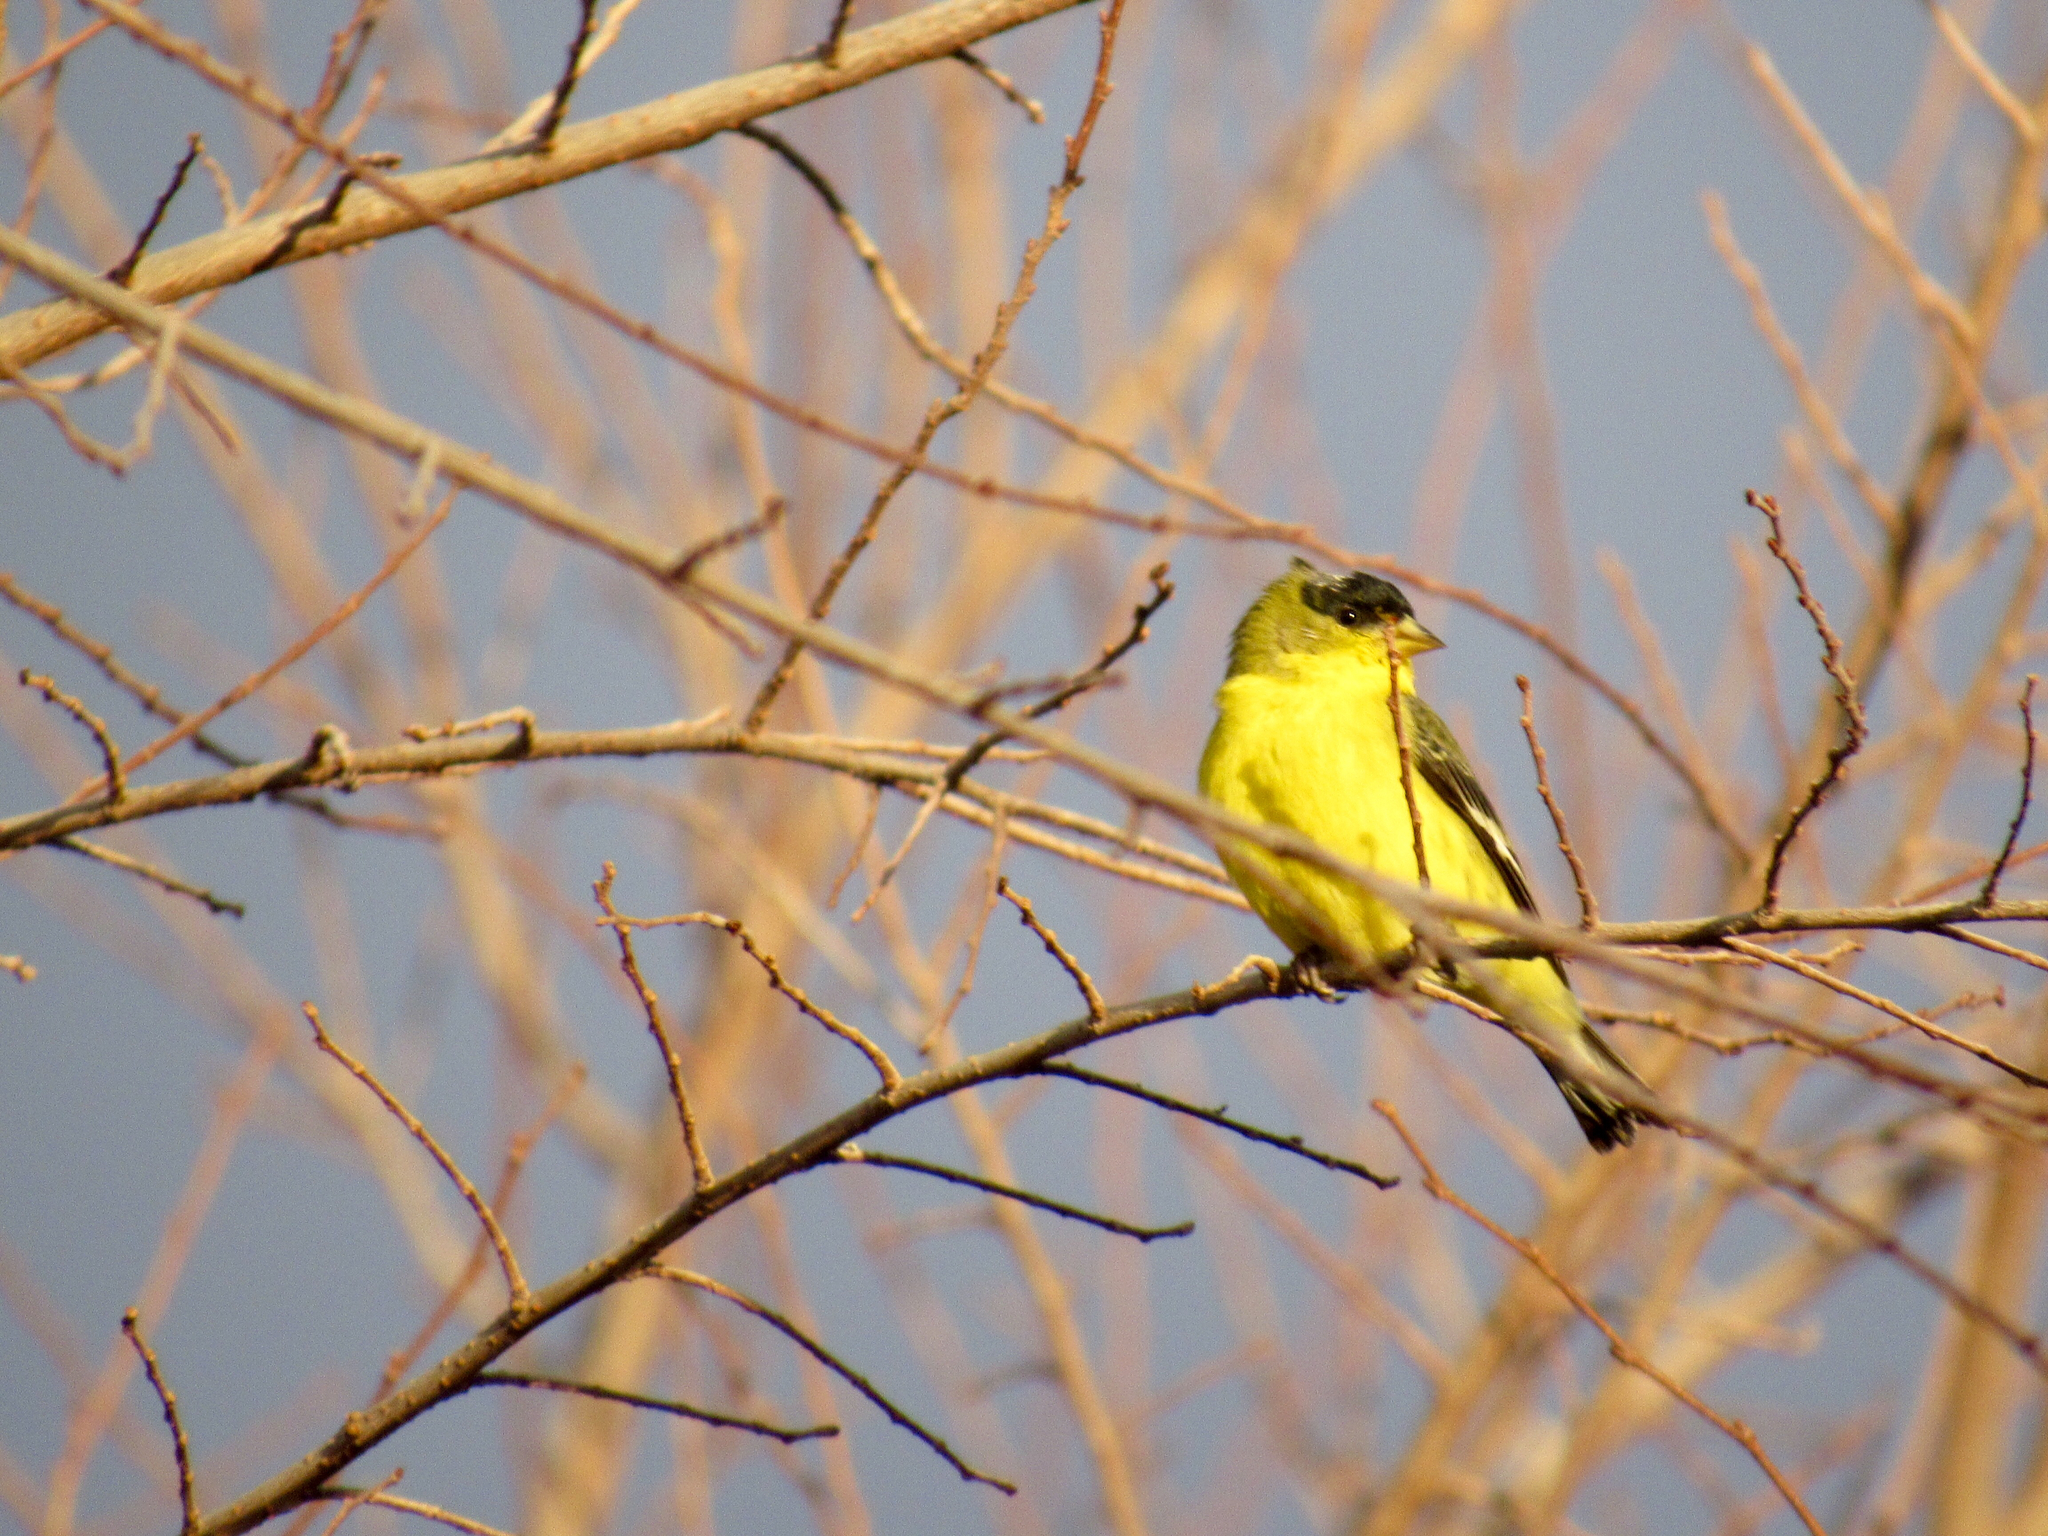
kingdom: Animalia
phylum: Chordata
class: Aves
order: Passeriformes
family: Fringillidae
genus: Spinus
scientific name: Spinus psaltria
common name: Lesser goldfinch
